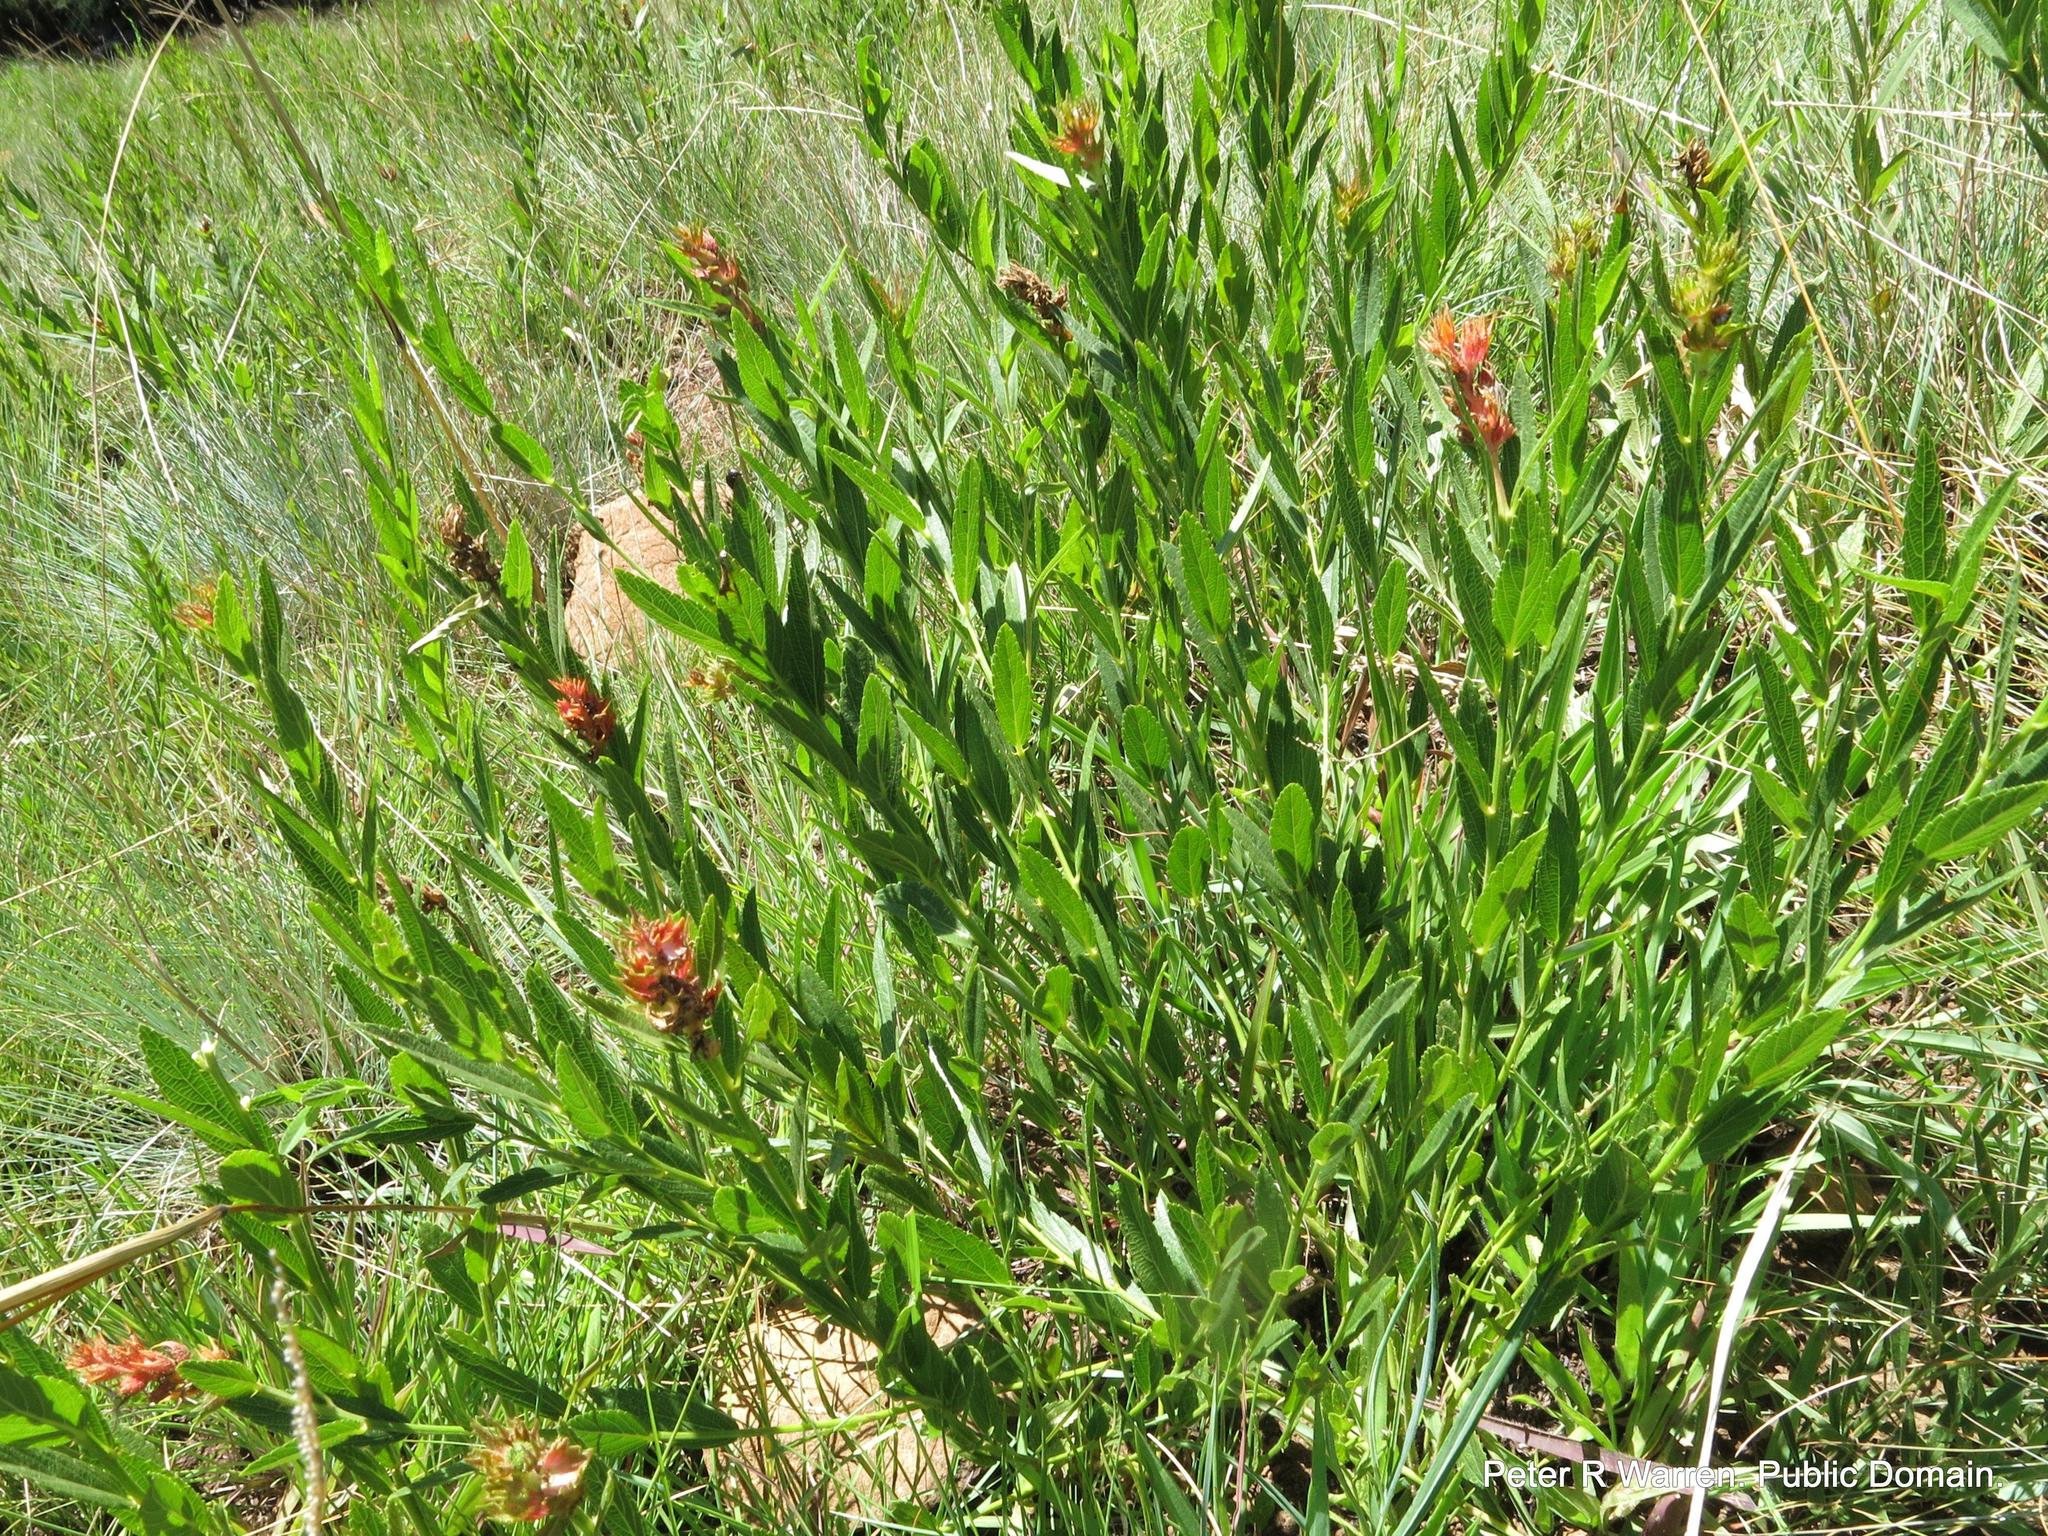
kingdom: Plantae
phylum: Tracheophyta
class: Magnoliopsida
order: Malpighiales
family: Euphorbiaceae
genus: Acalypha
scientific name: Acalypha punctata
